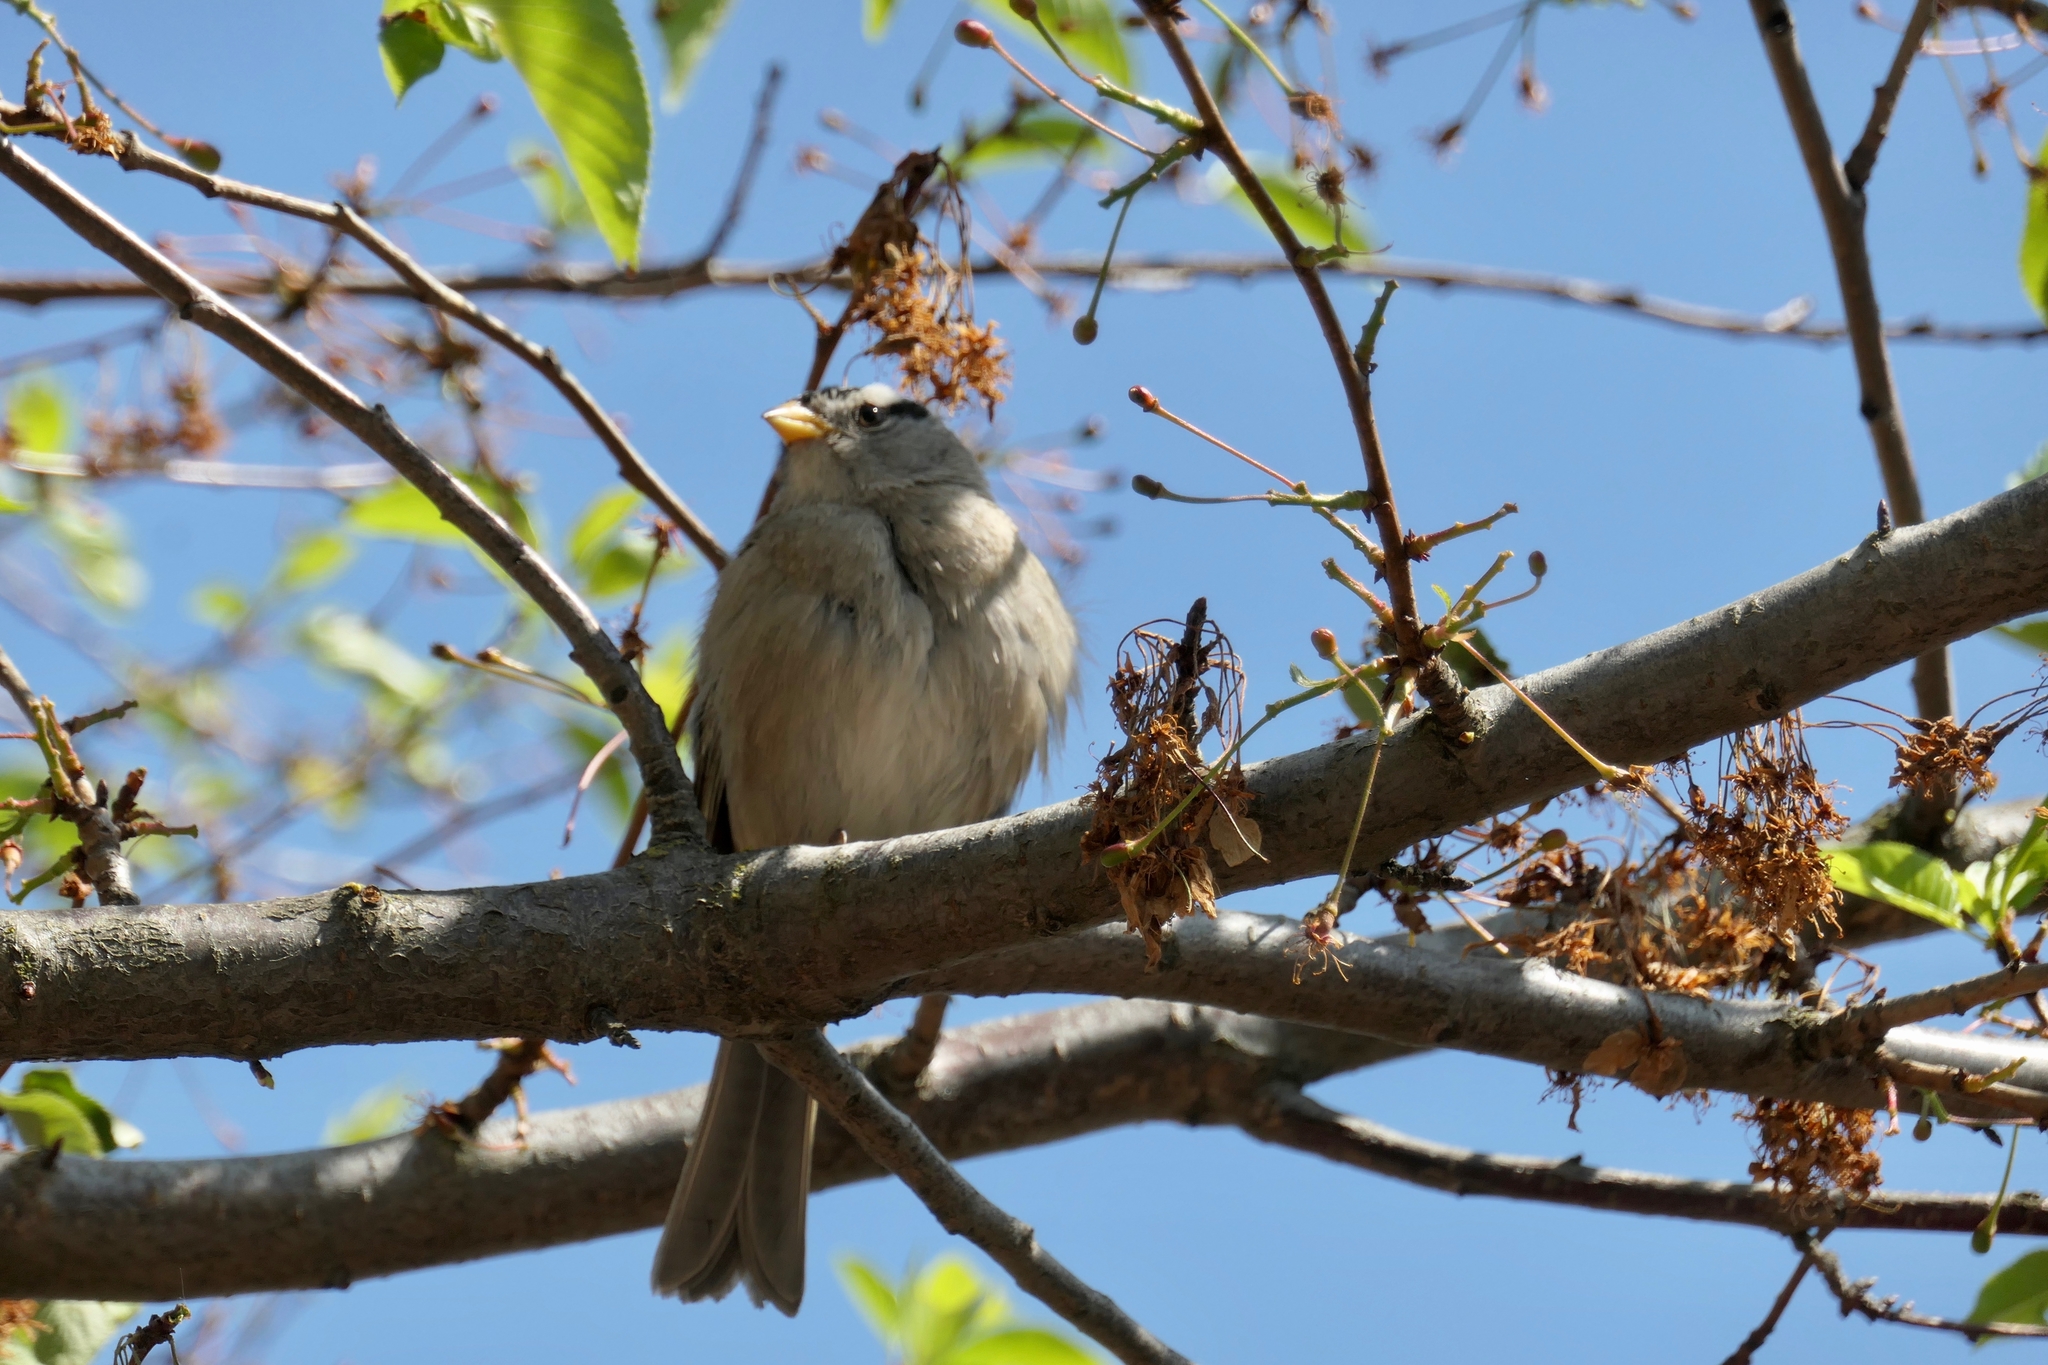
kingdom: Animalia
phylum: Chordata
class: Aves
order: Passeriformes
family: Passerellidae
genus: Zonotrichia
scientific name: Zonotrichia leucophrys
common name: White-crowned sparrow
